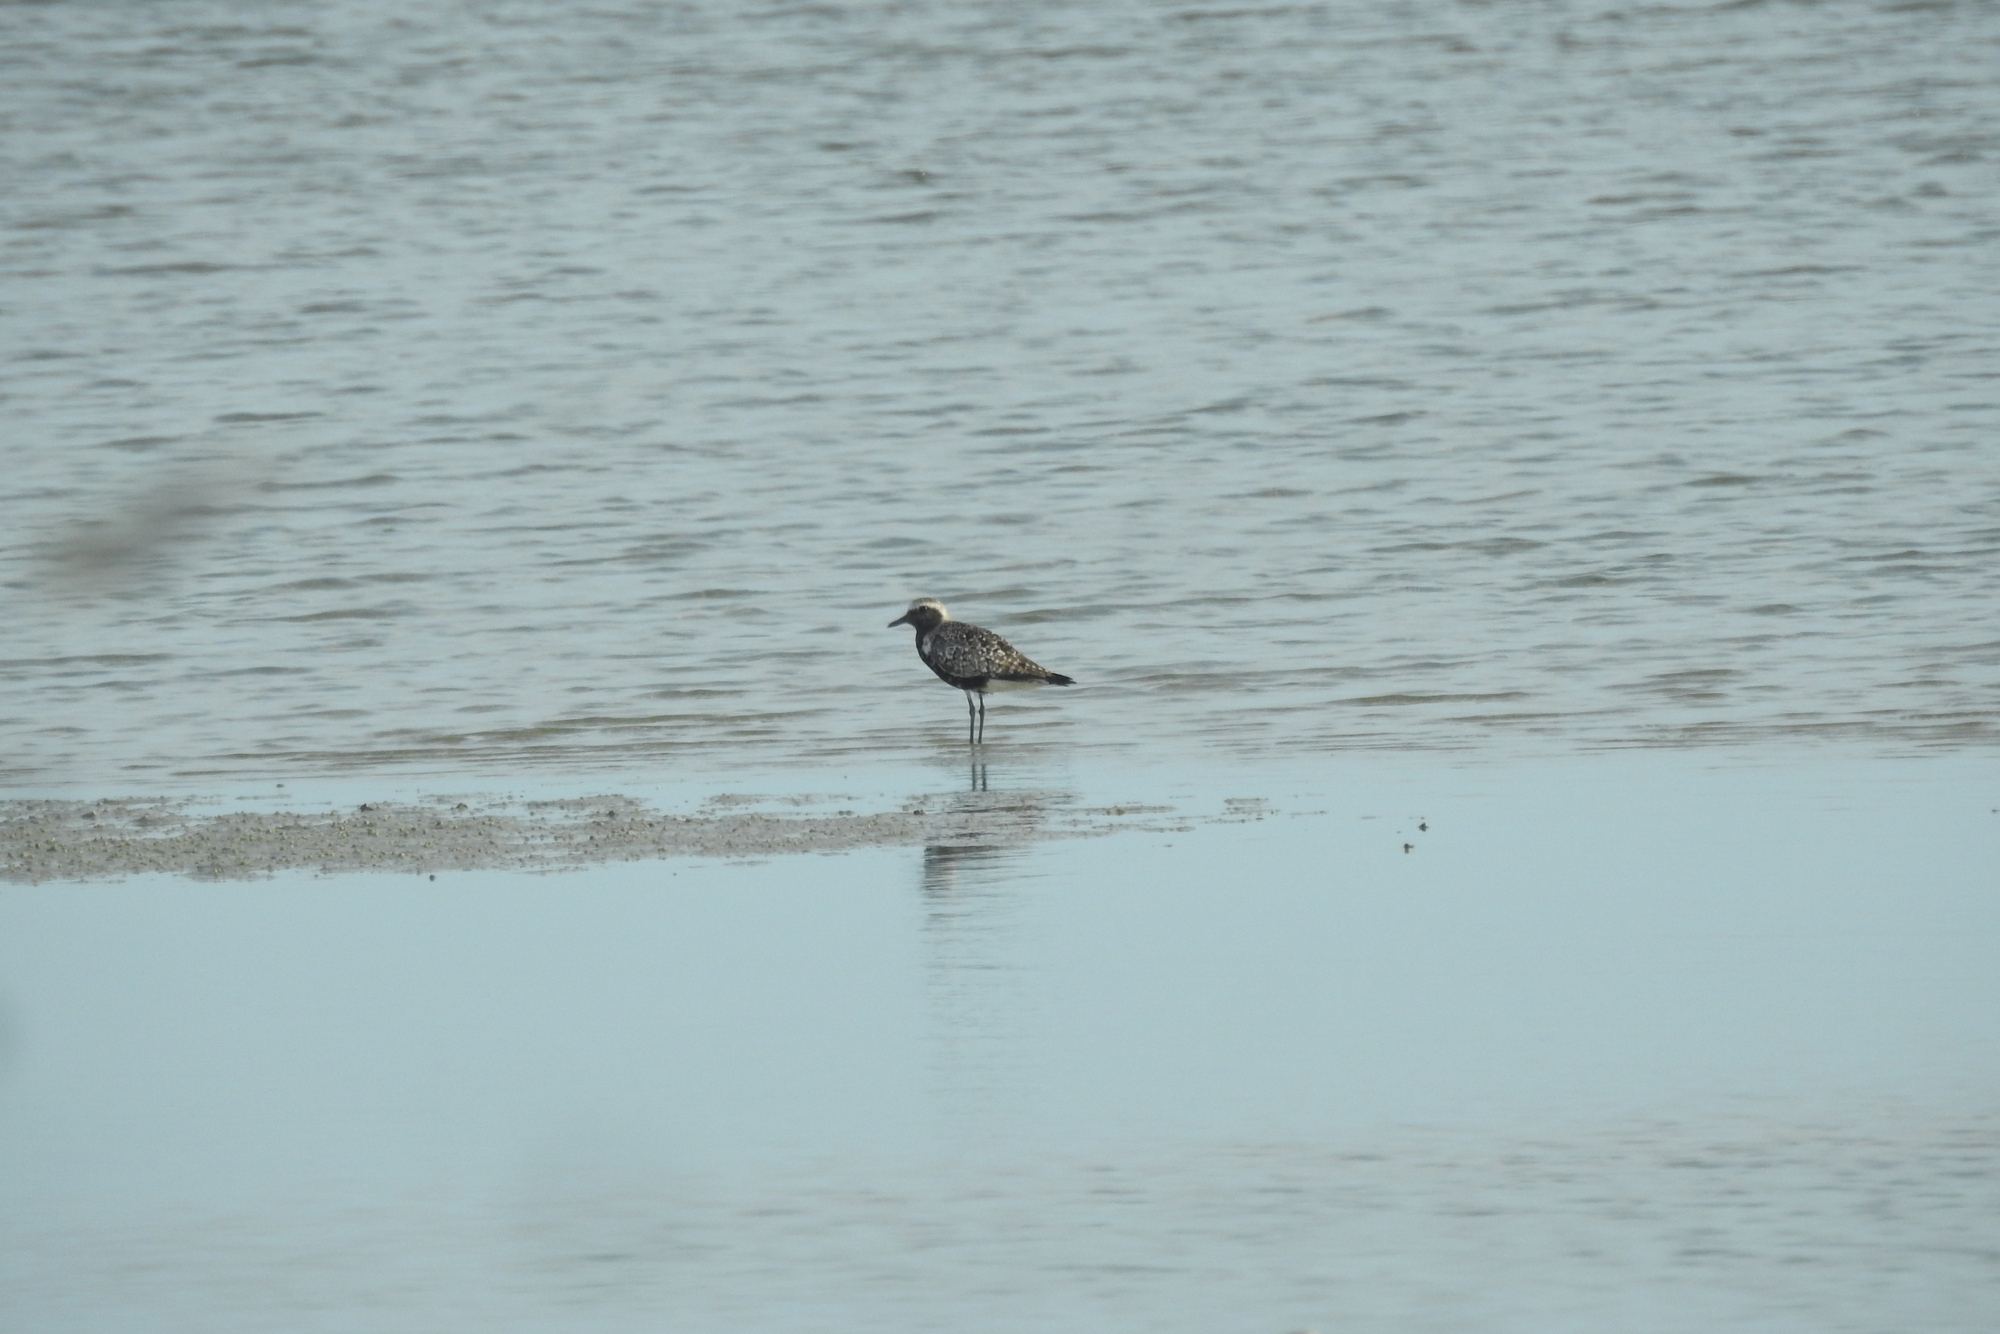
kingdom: Animalia
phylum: Chordata
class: Aves
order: Charadriiformes
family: Charadriidae
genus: Pluvialis
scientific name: Pluvialis squatarola
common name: Grey plover
